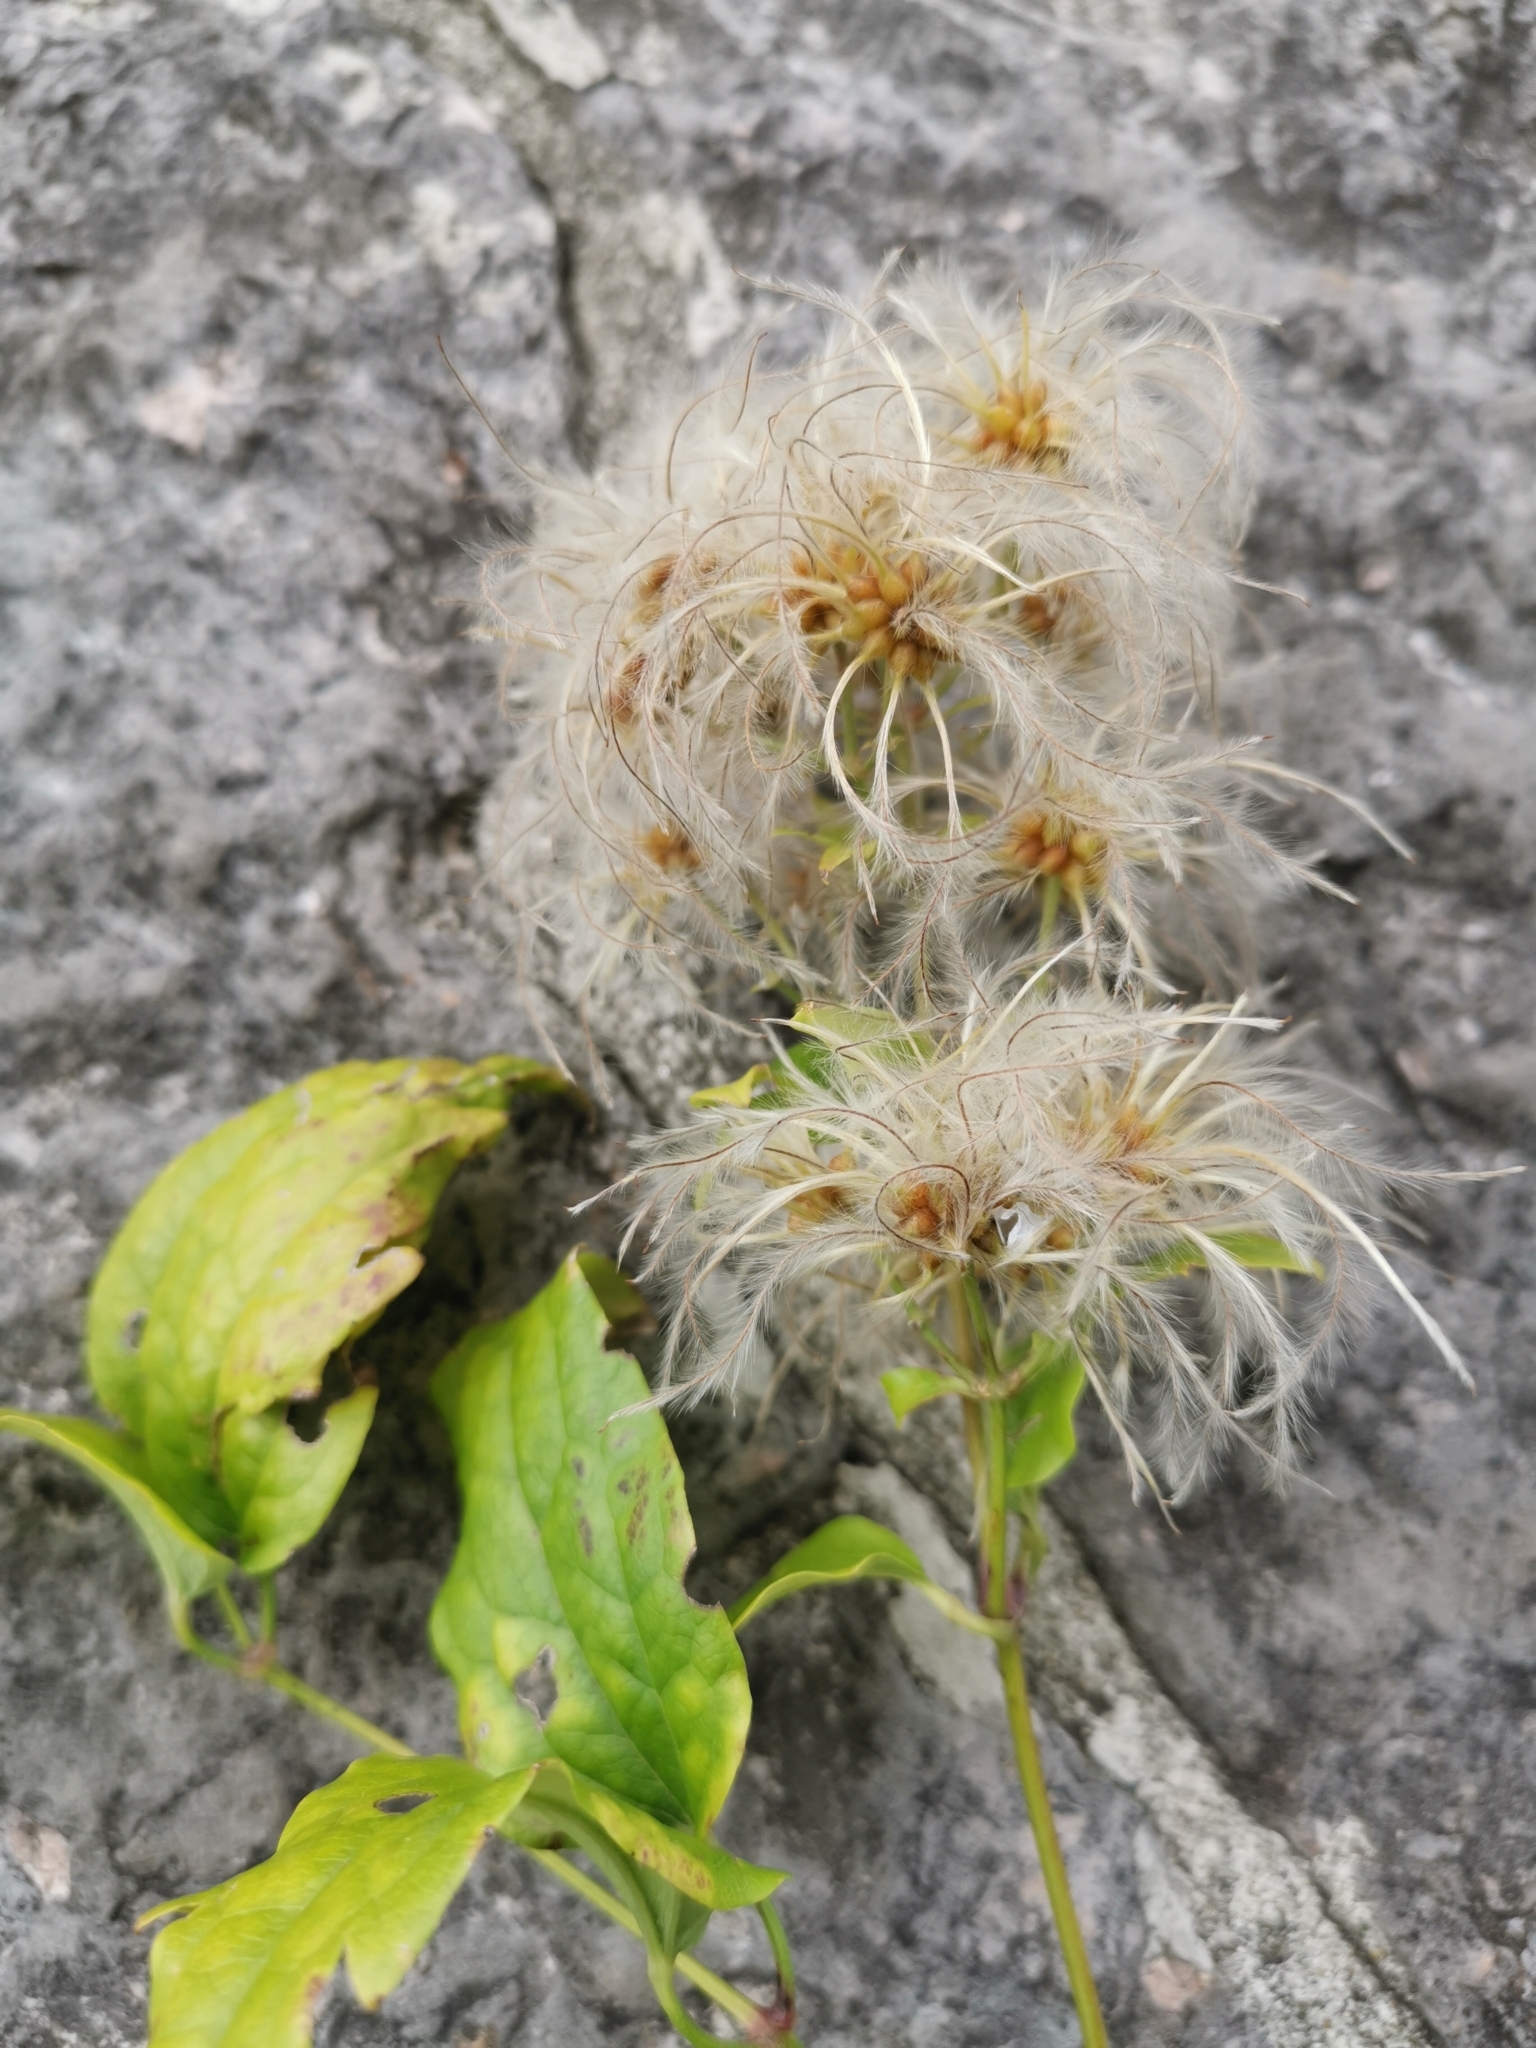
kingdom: Plantae
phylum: Tracheophyta
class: Magnoliopsida
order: Ranunculales
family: Ranunculaceae
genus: Clematis
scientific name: Clematis vitalba
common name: Evergreen clematis
